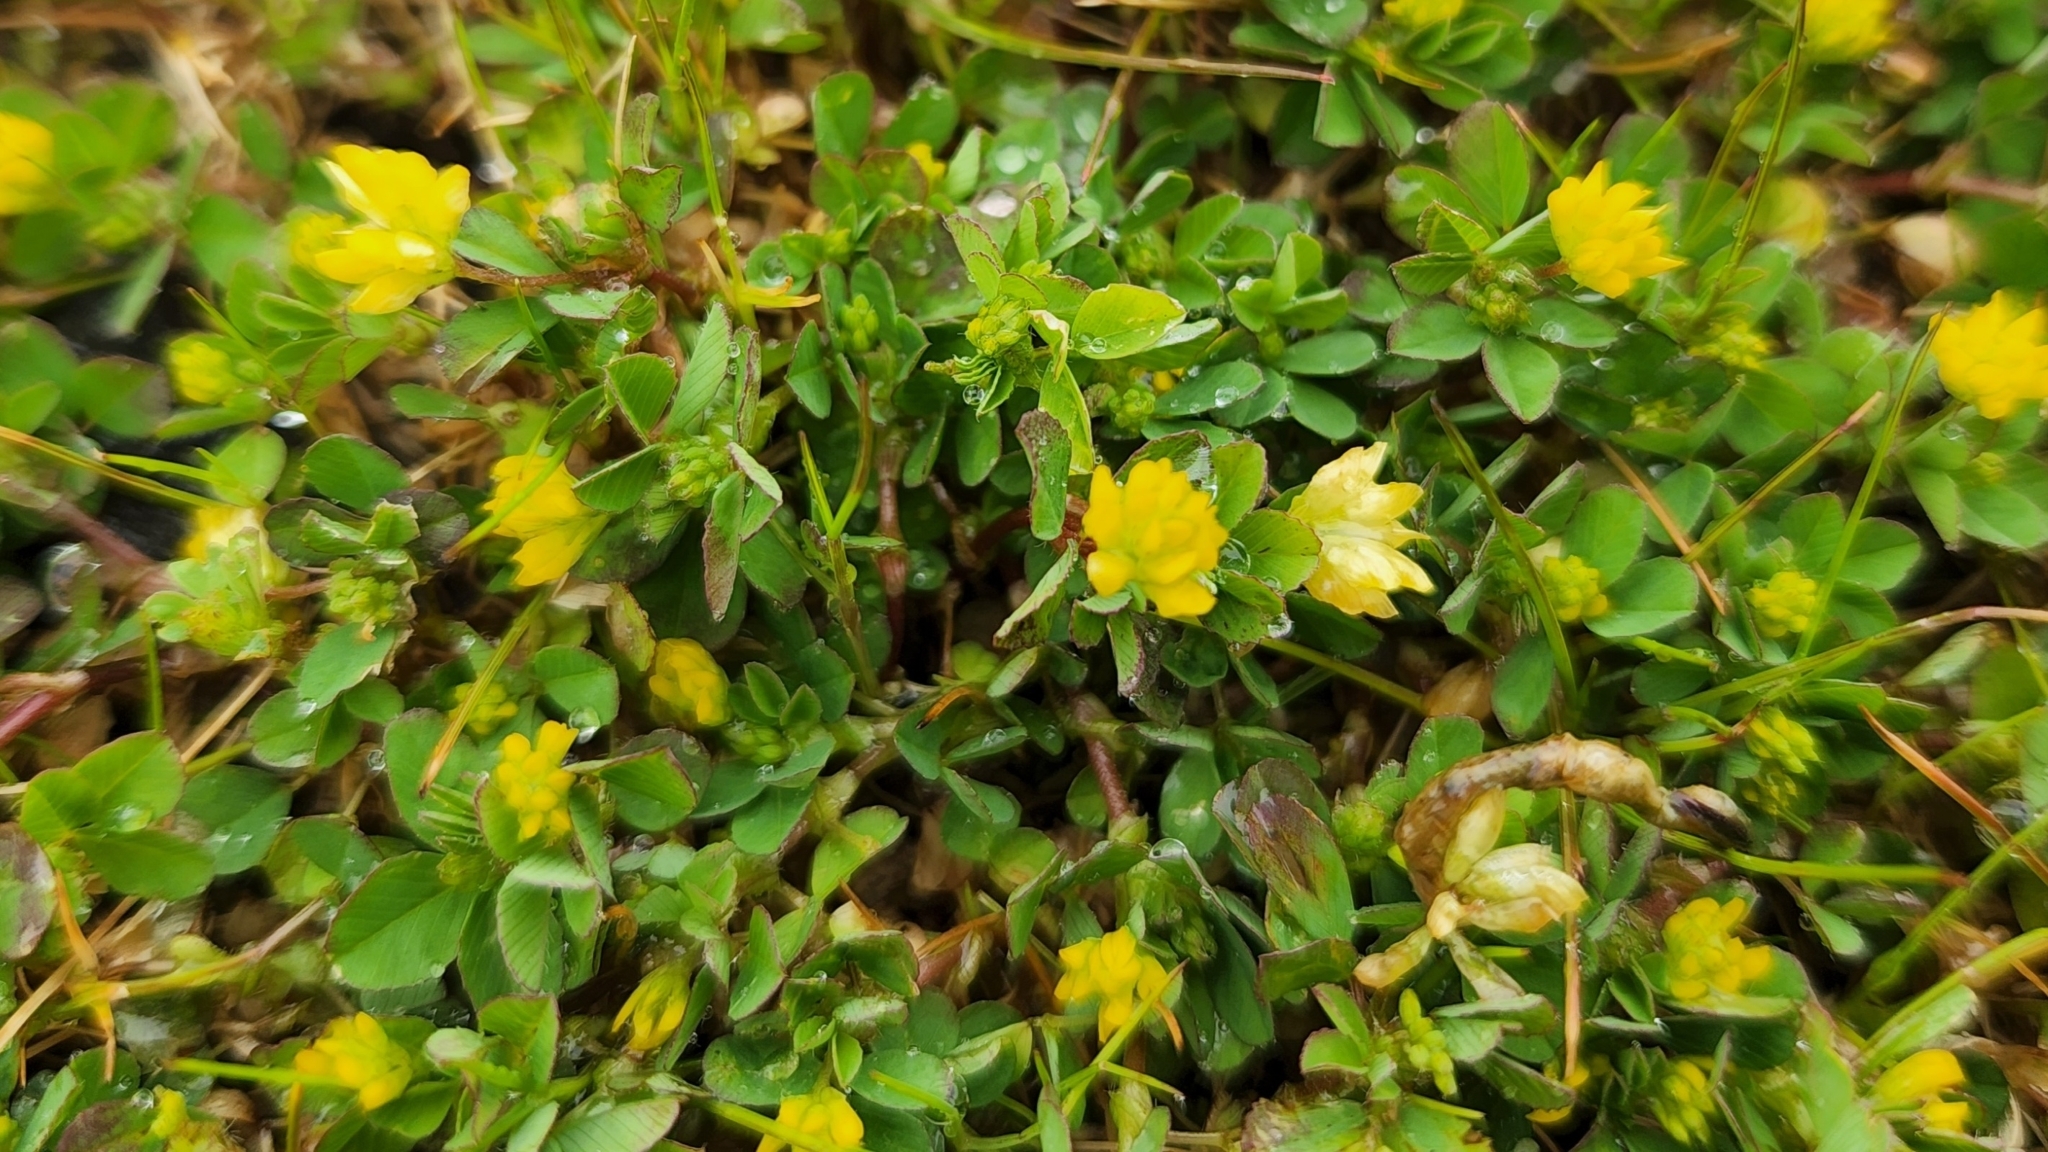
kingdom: Plantae
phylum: Tracheophyta
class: Magnoliopsida
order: Fabales
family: Fabaceae
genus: Trifolium
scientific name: Trifolium dubium
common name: Suckling clover
